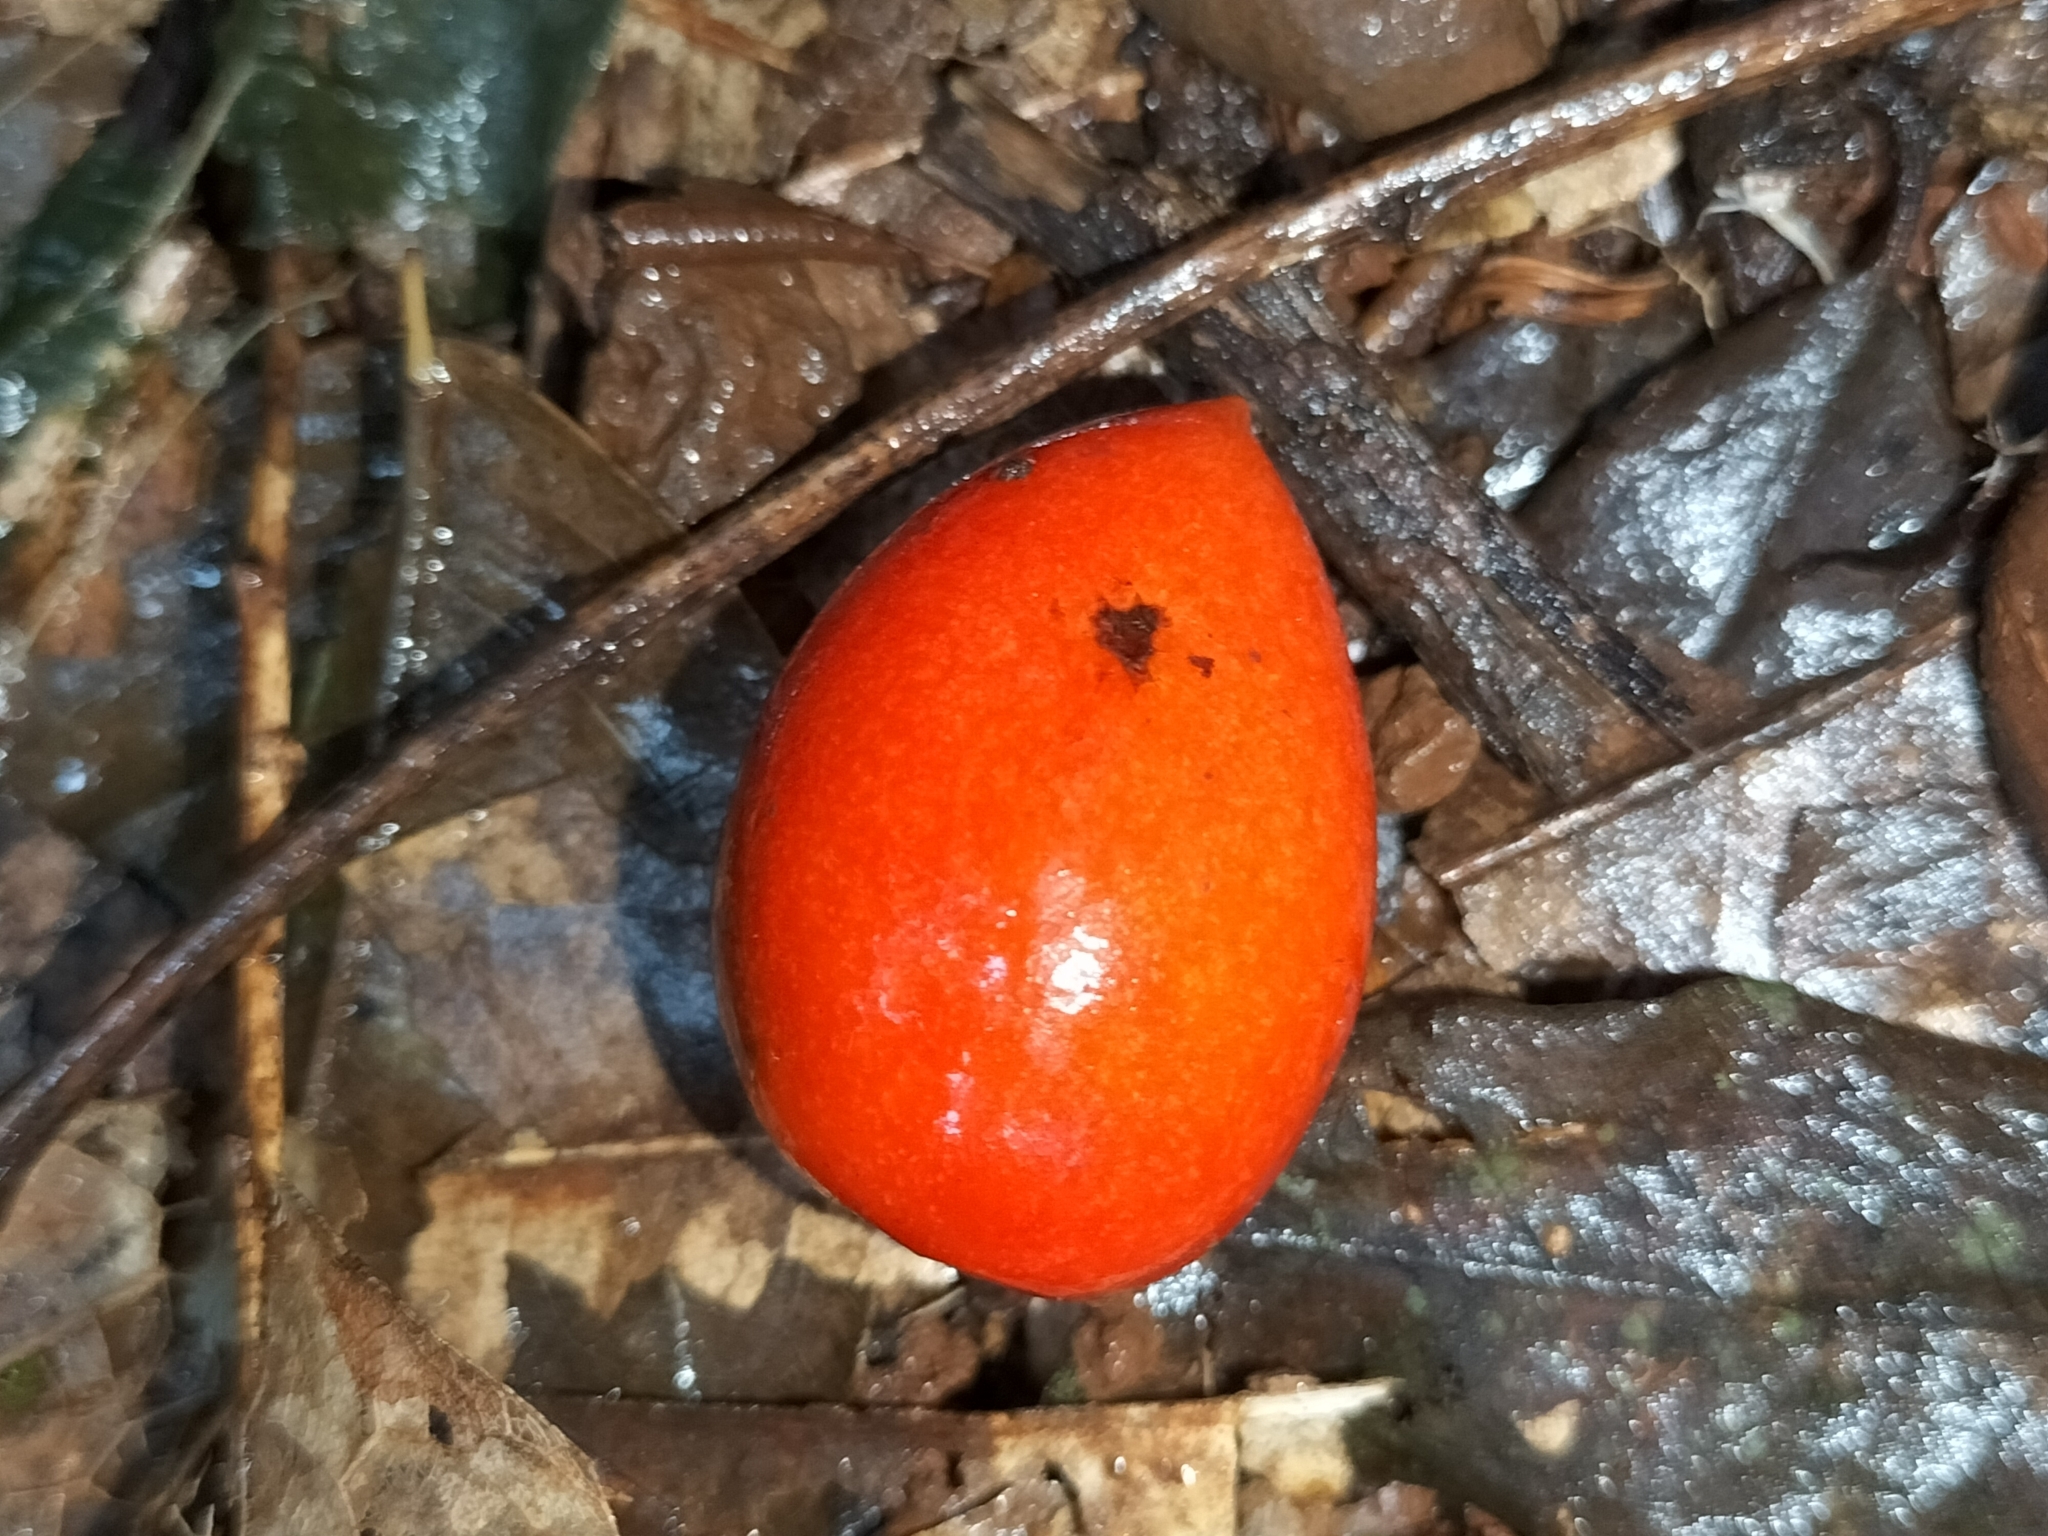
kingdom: Plantae
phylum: Tracheophyta
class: Magnoliopsida
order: Gentianales
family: Apocynaceae
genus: Ochrosia
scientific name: Ochrosia poweri
